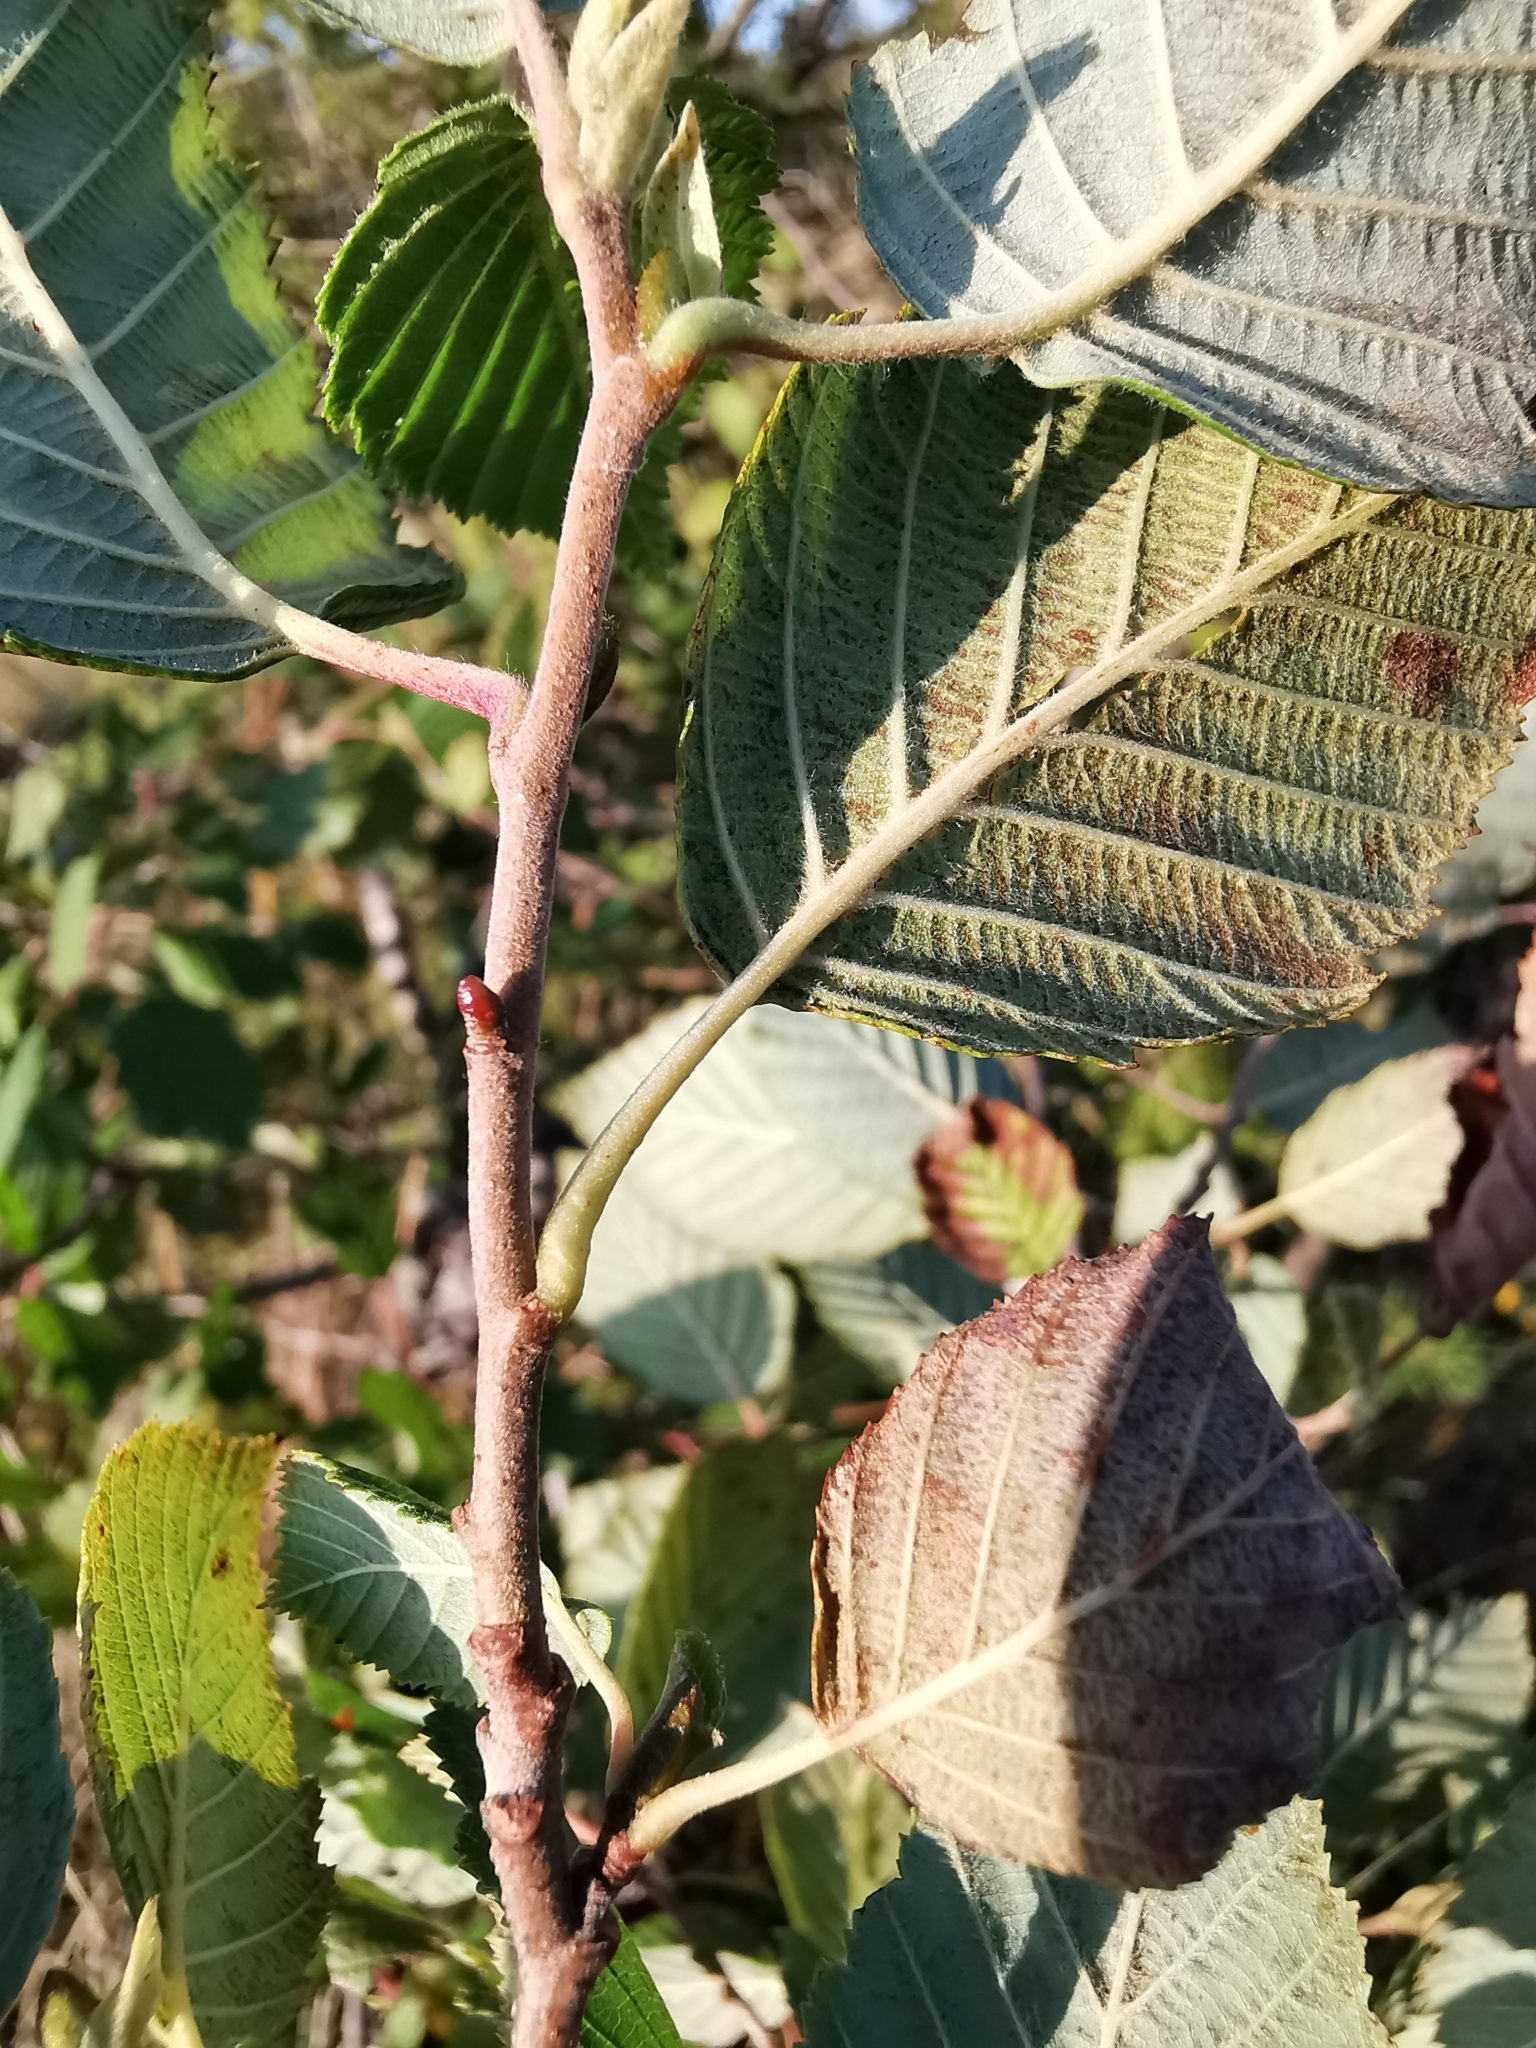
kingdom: Plantae
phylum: Tracheophyta
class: Magnoliopsida
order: Fagales
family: Betulaceae
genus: Alnus
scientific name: Alnus incana
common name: Grey alder
